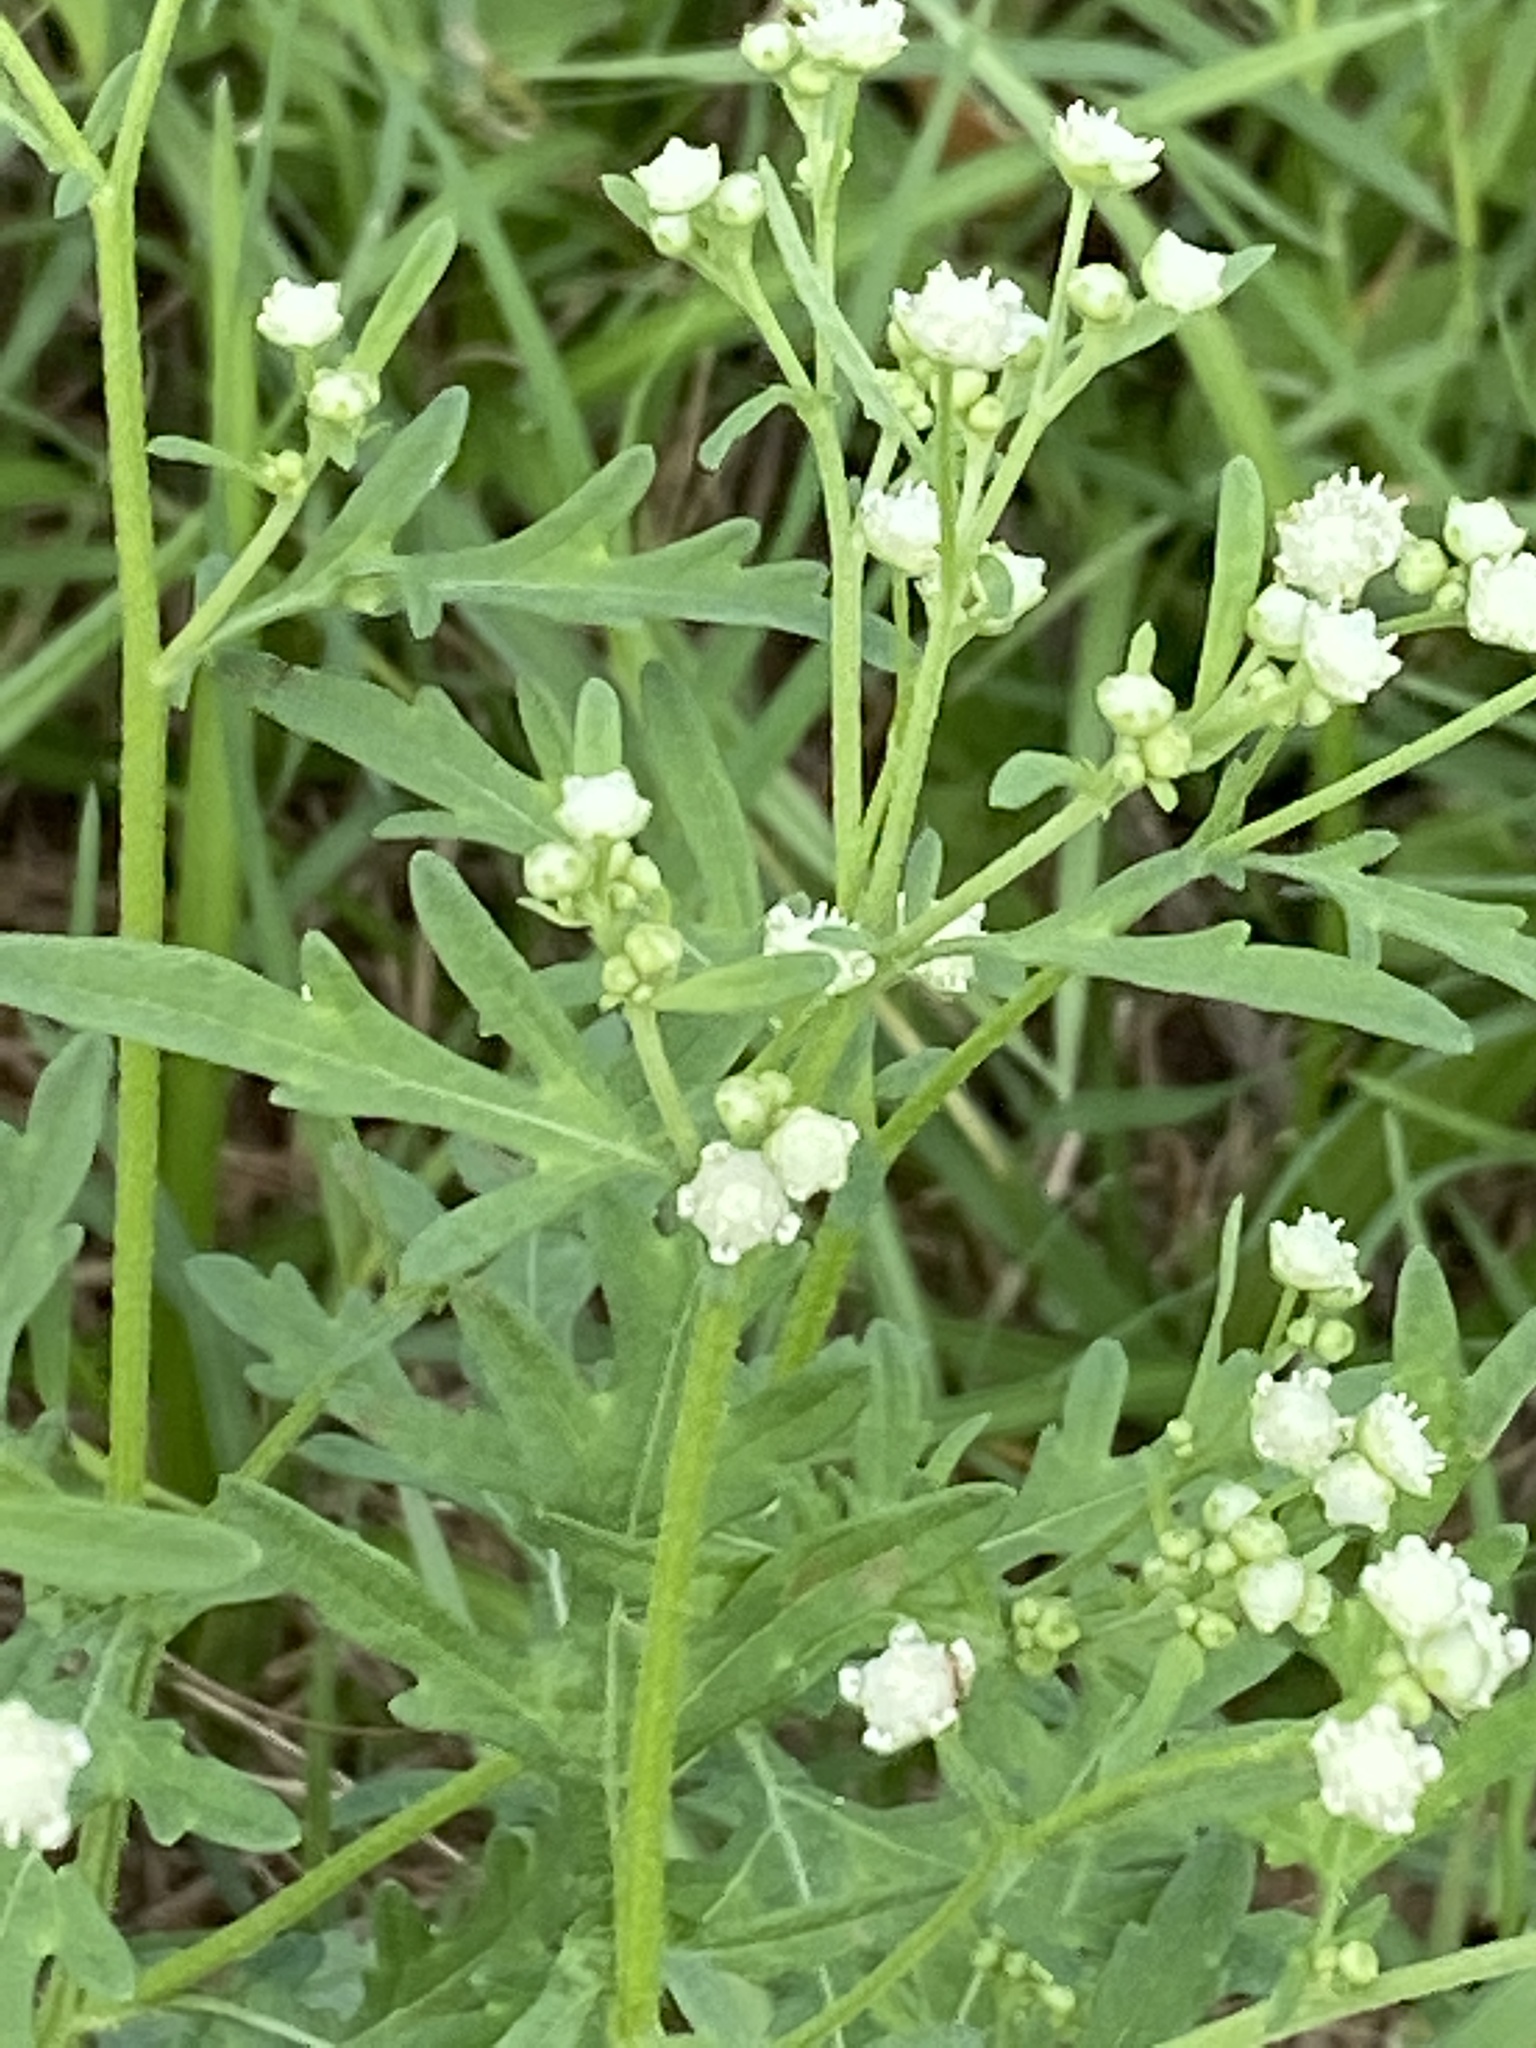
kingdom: Plantae
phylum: Tracheophyta
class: Magnoliopsida
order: Asterales
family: Asteraceae
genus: Parthenium
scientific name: Parthenium hysterophorus
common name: Santa maria feverfew
